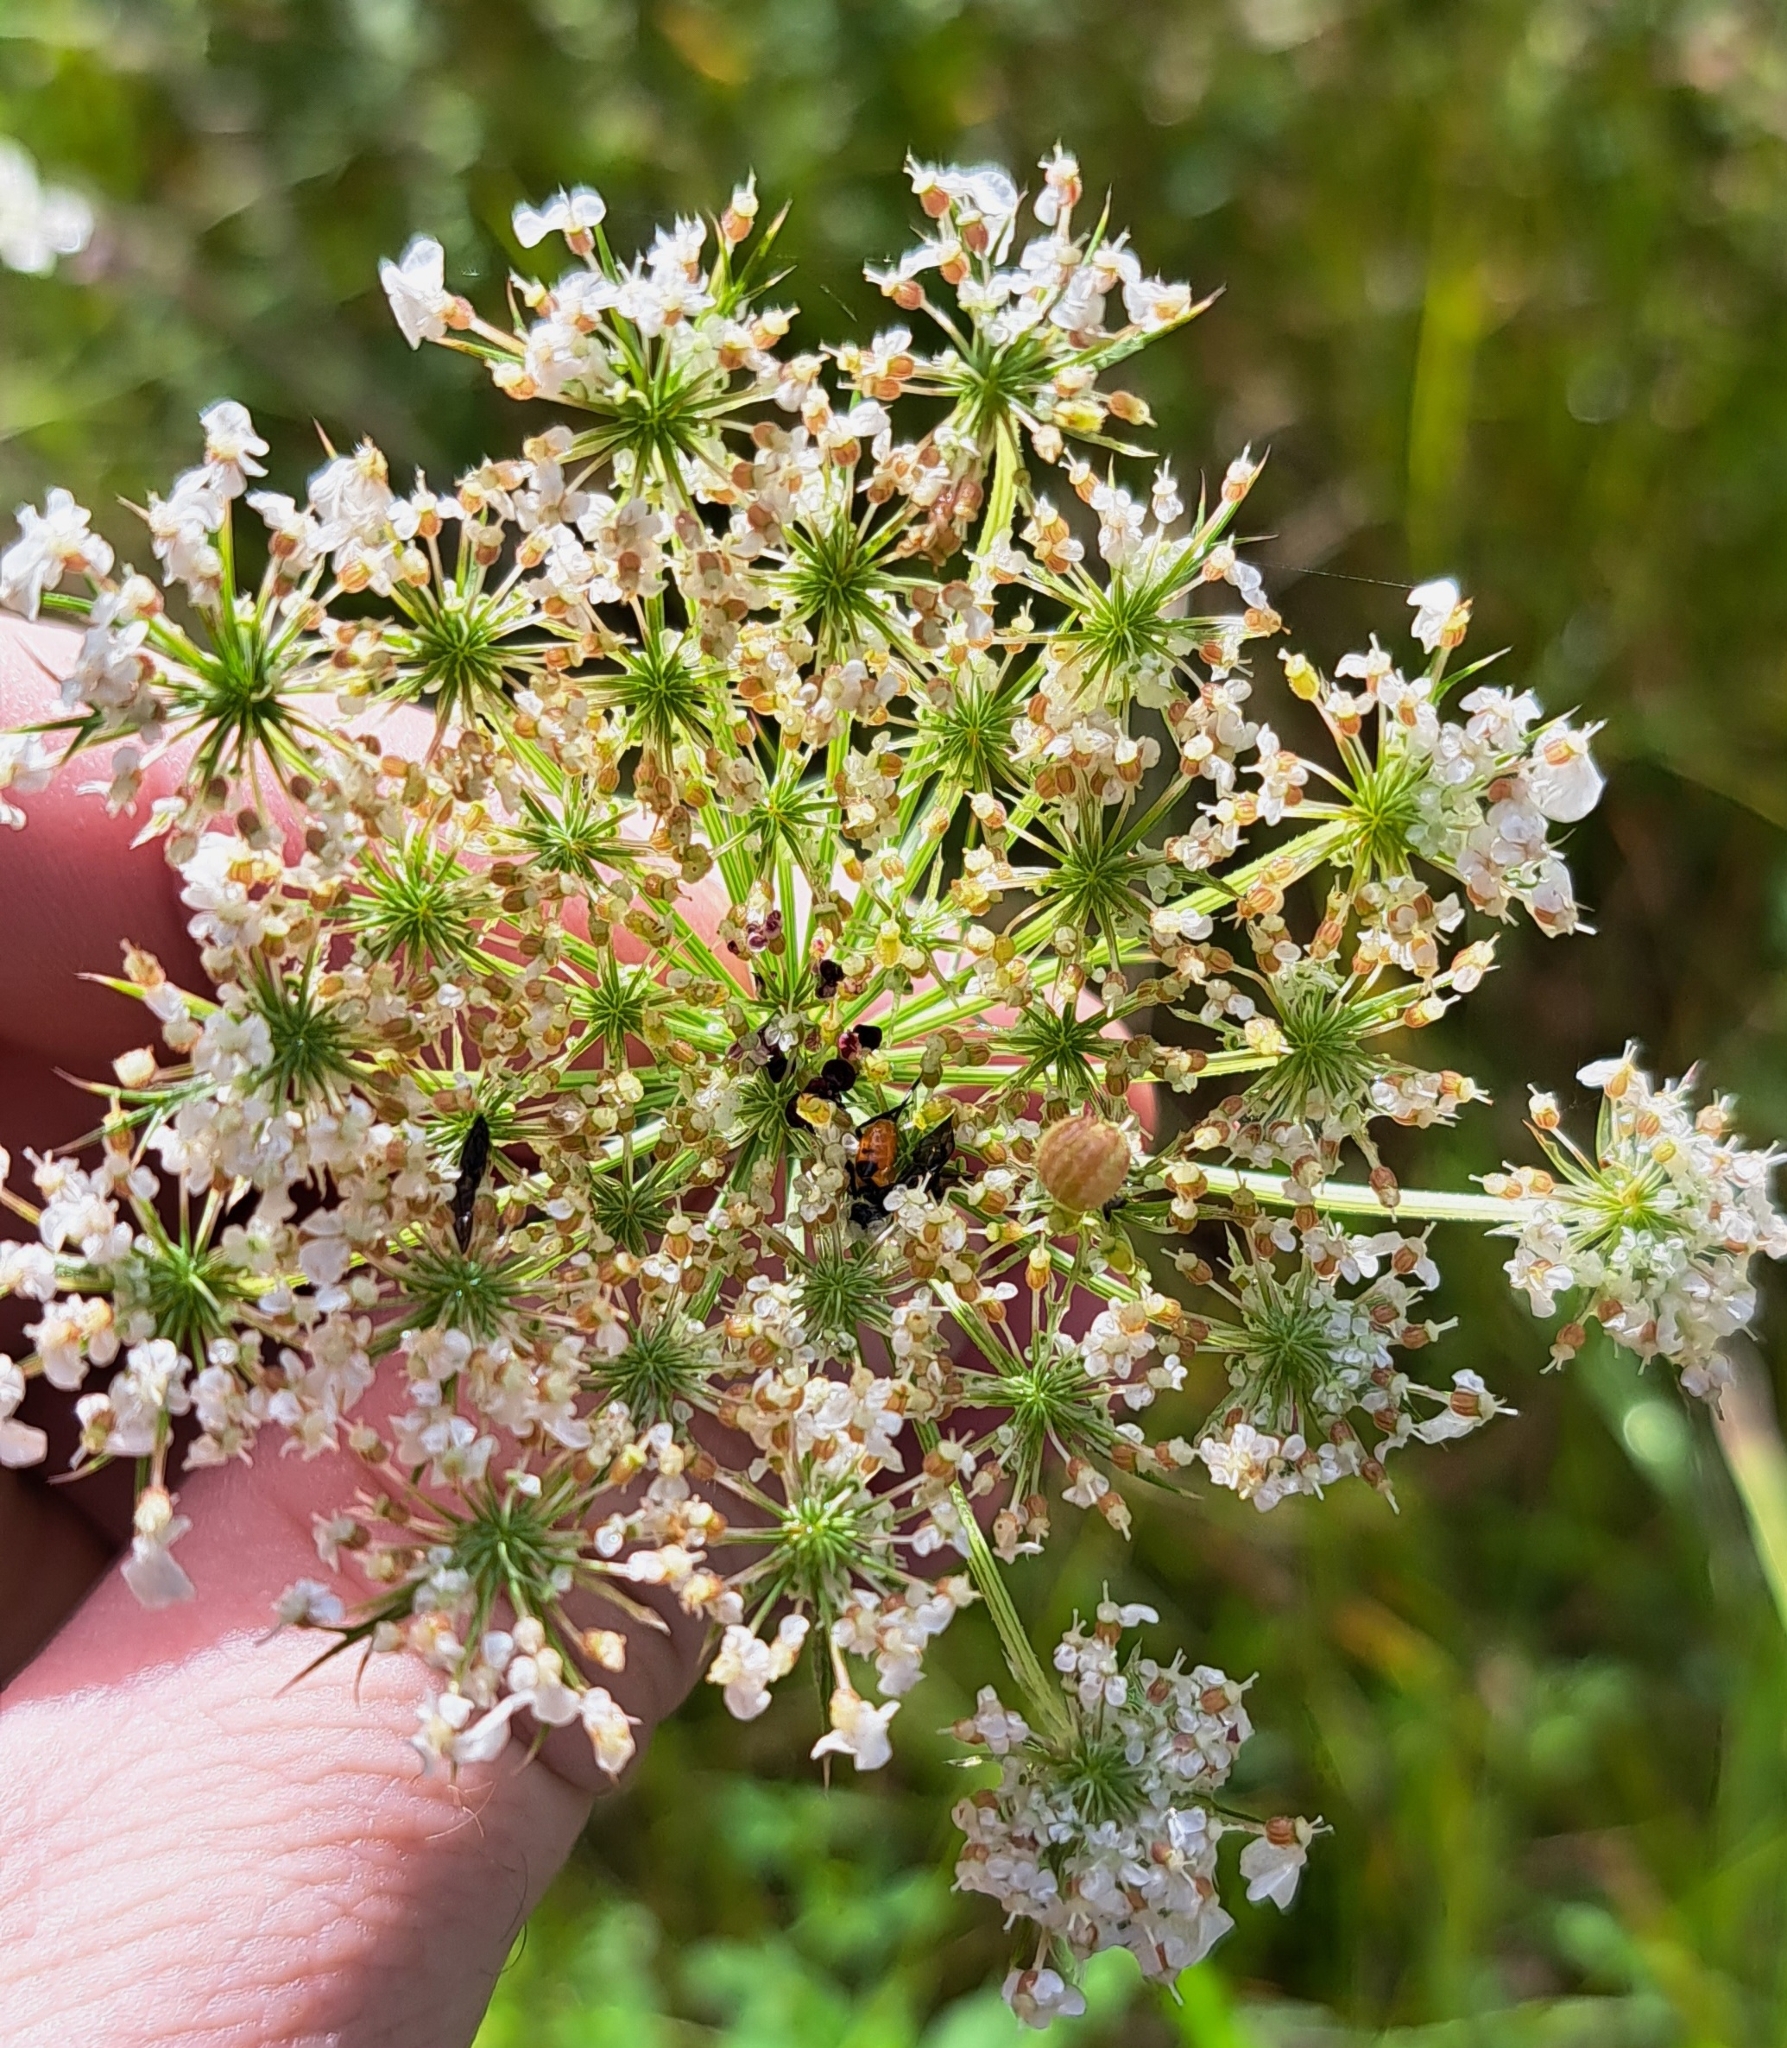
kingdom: Animalia
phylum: Arthropoda
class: Insecta
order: Diptera
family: Cecidomyiidae
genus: Kiefferia
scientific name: Kiefferia pericarpiicola
